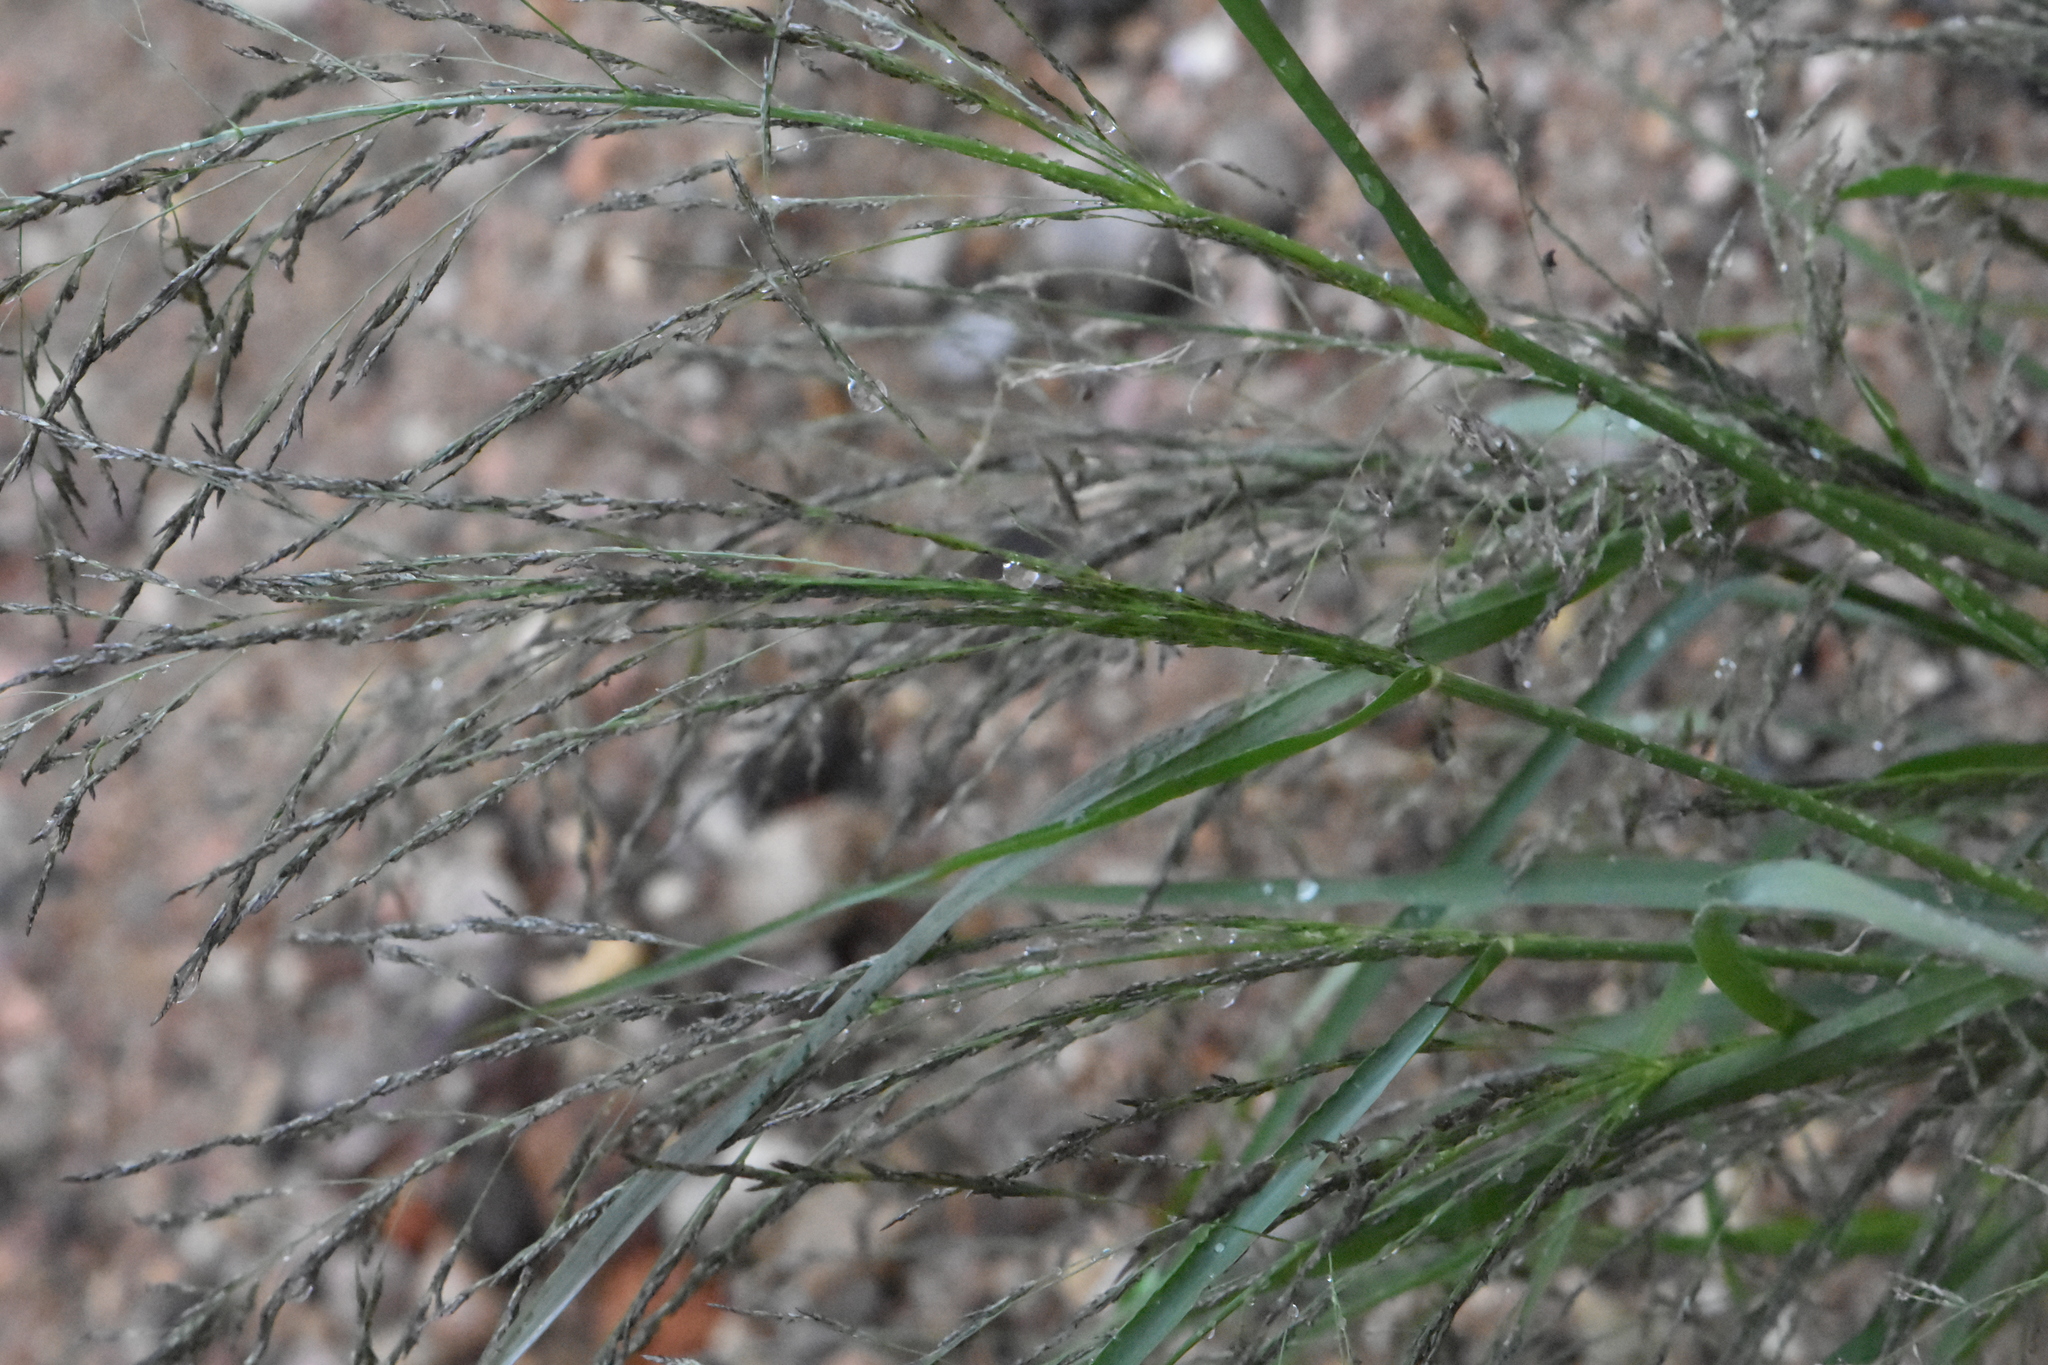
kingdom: Plantae
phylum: Tracheophyta
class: Liliopsida
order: Poales
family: Poaceae
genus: Eragrostis
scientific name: Eragrostis pilosa
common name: Indian lovegrass
